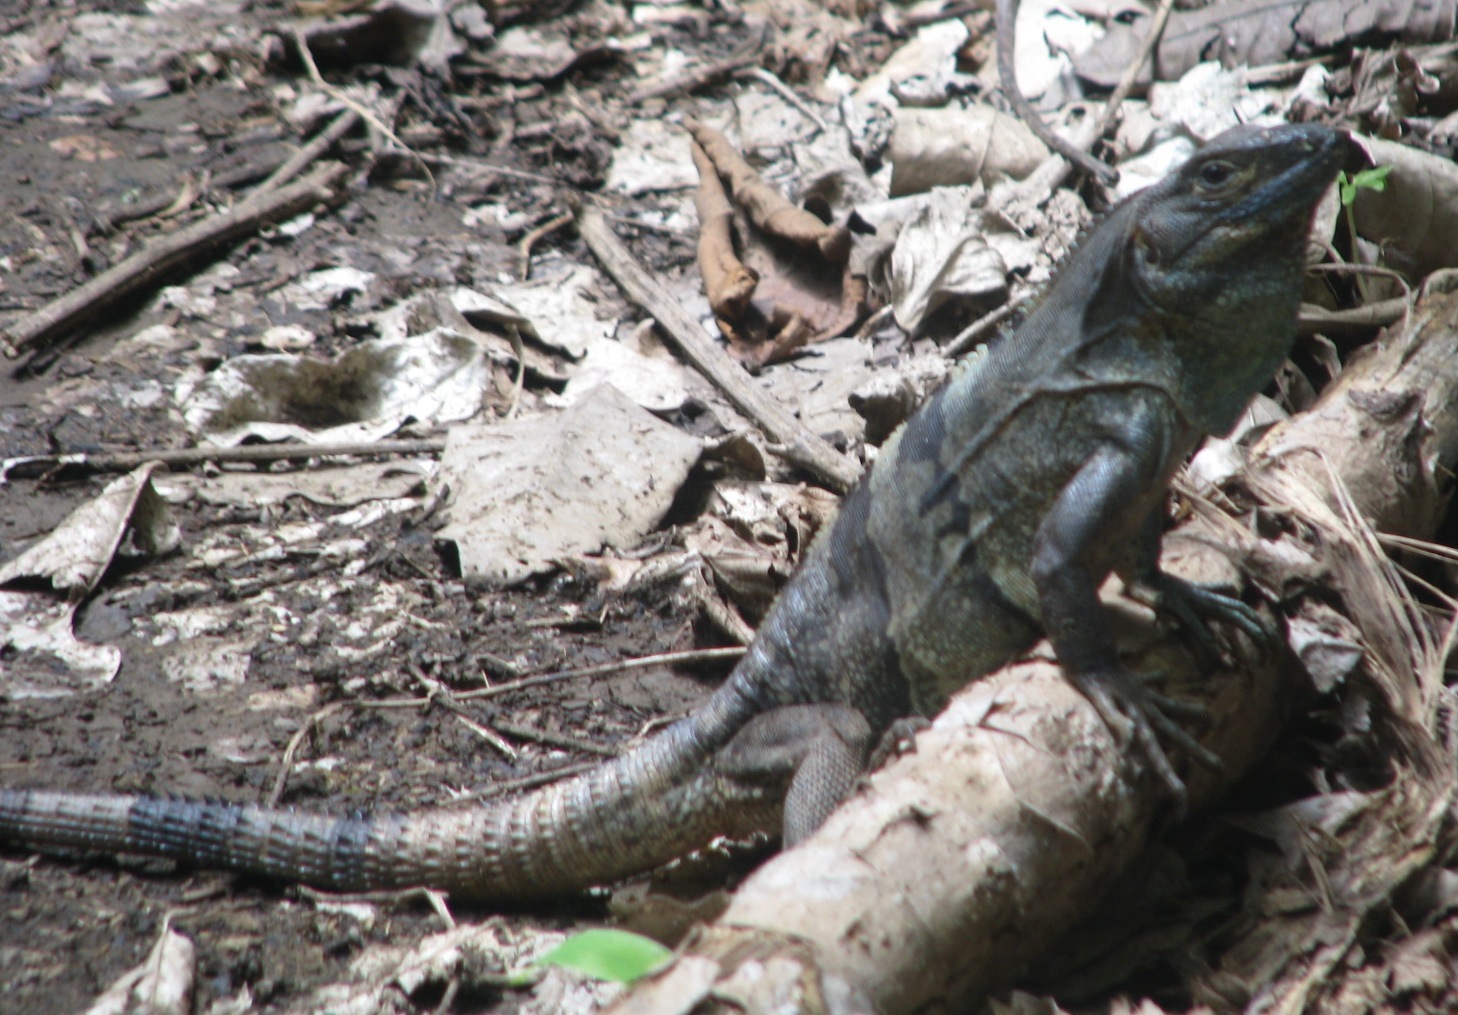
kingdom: Animalia
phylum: Chordata
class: Squamata
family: Iguanidae
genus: Ctenosaura
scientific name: Ctenosaura similis
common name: Black spiny-tailed iguana
